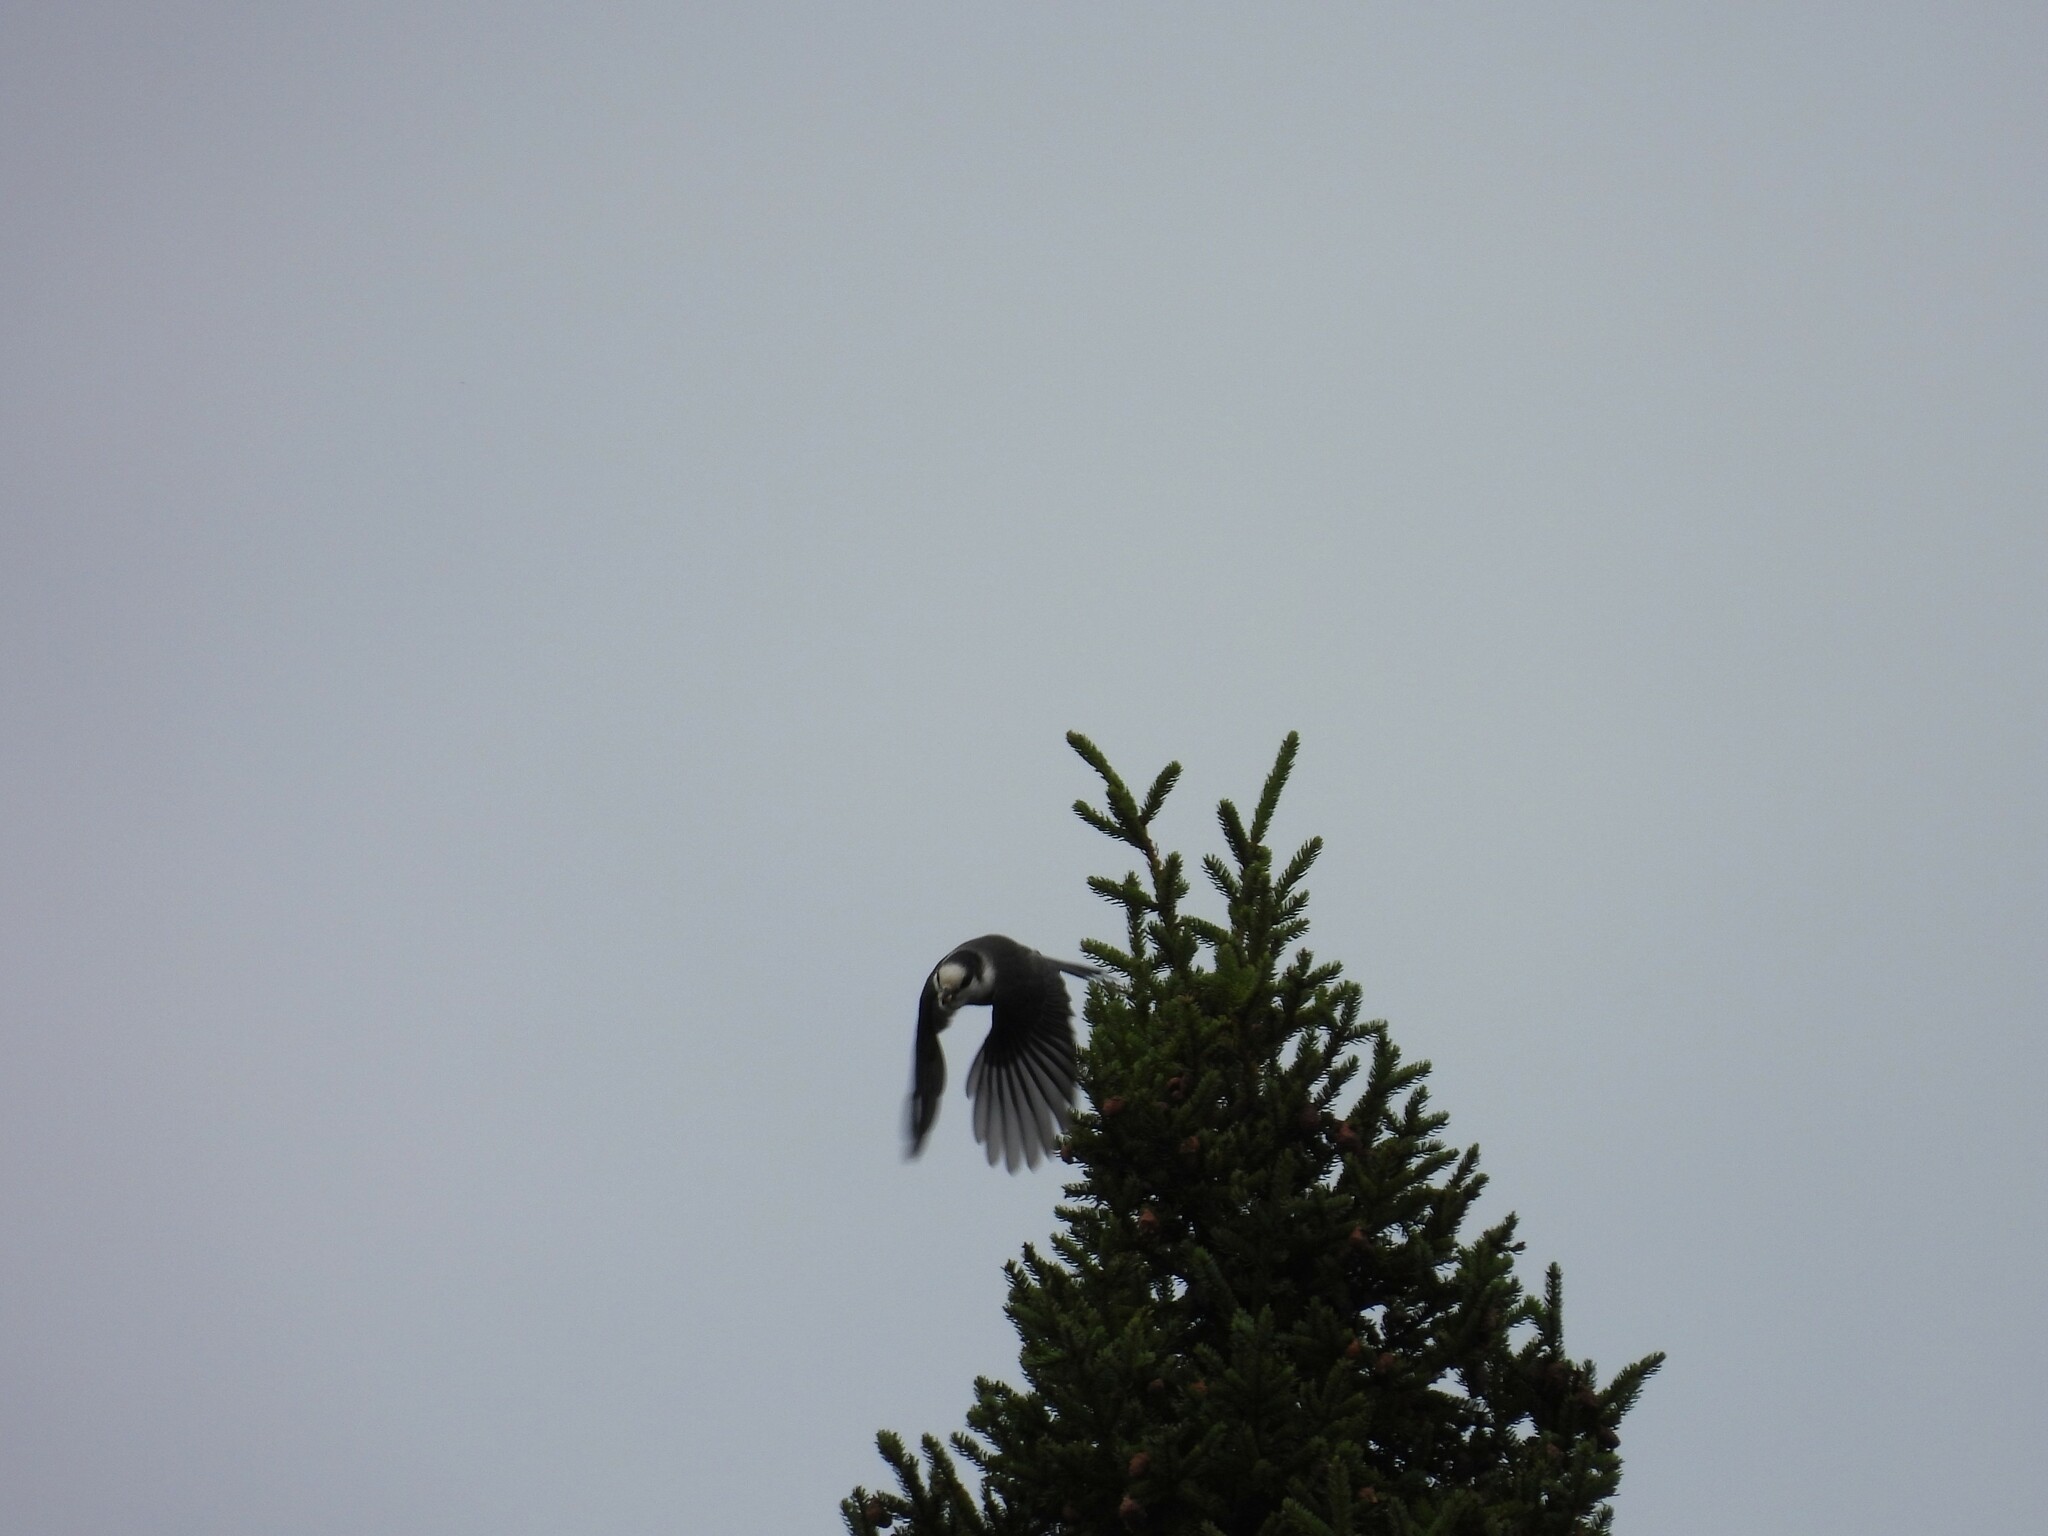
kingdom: Animalia
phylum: Chordata
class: Aves
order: Passeriformes
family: Corvidae
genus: Perisoreus
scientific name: Perisoreus canadensis
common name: Gray jay
